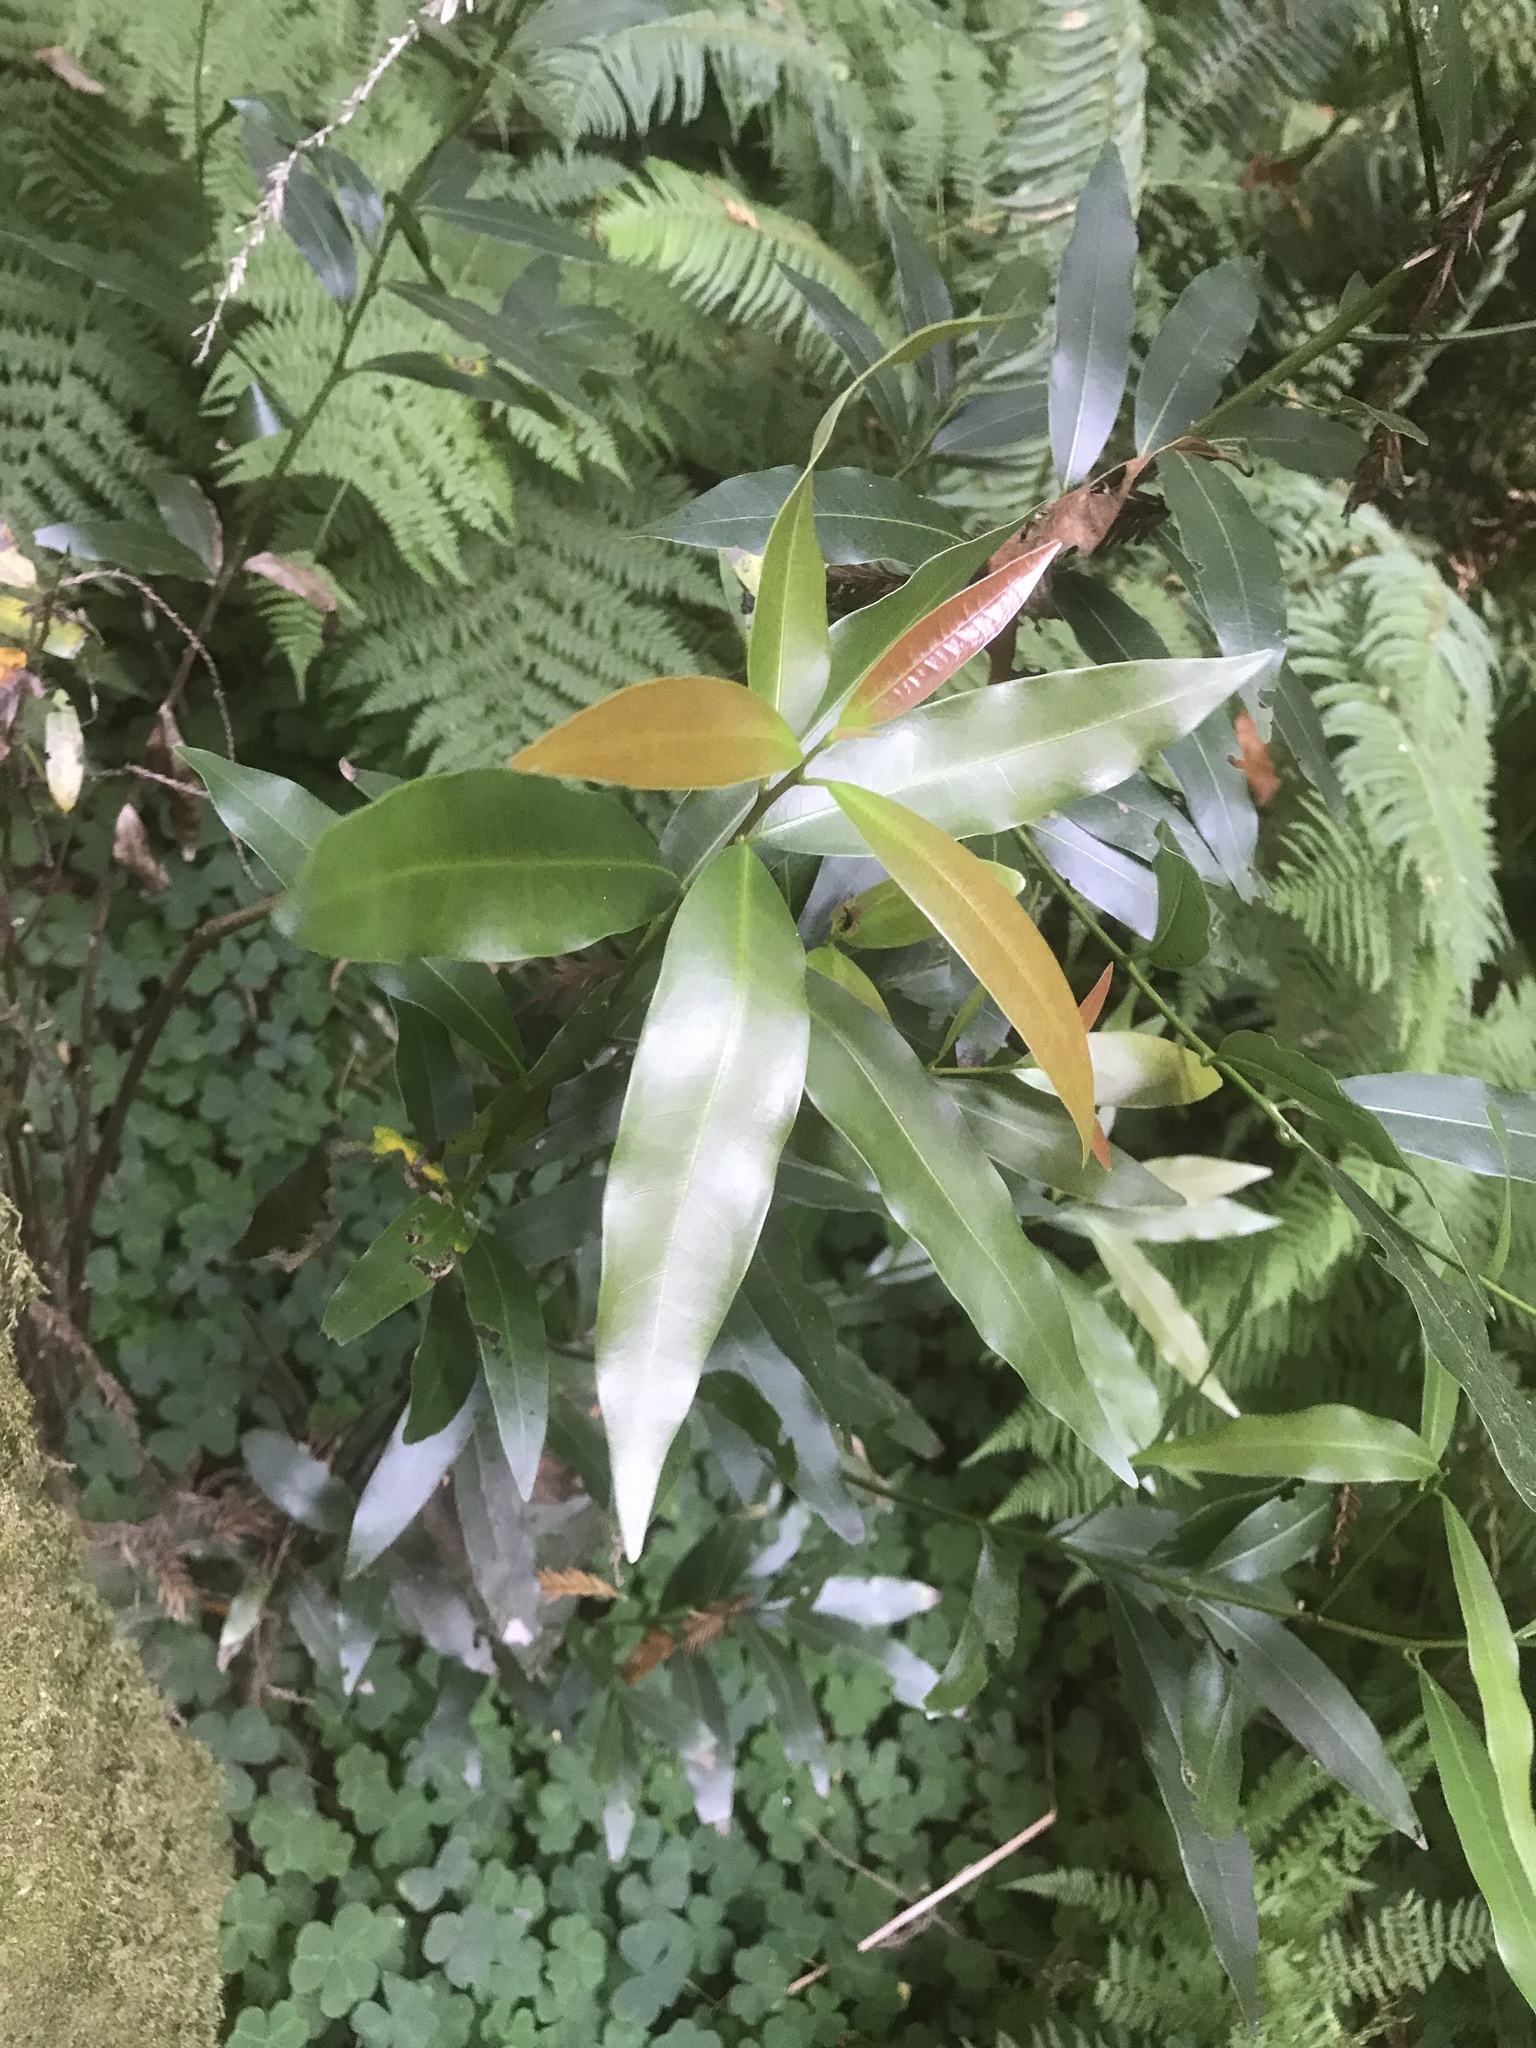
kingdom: Plantae
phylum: Tracheophyta
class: Magnoliopsida
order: Laurales
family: Lauraceae
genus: Umbellularia
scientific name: Umbellularia californica
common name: California bay
